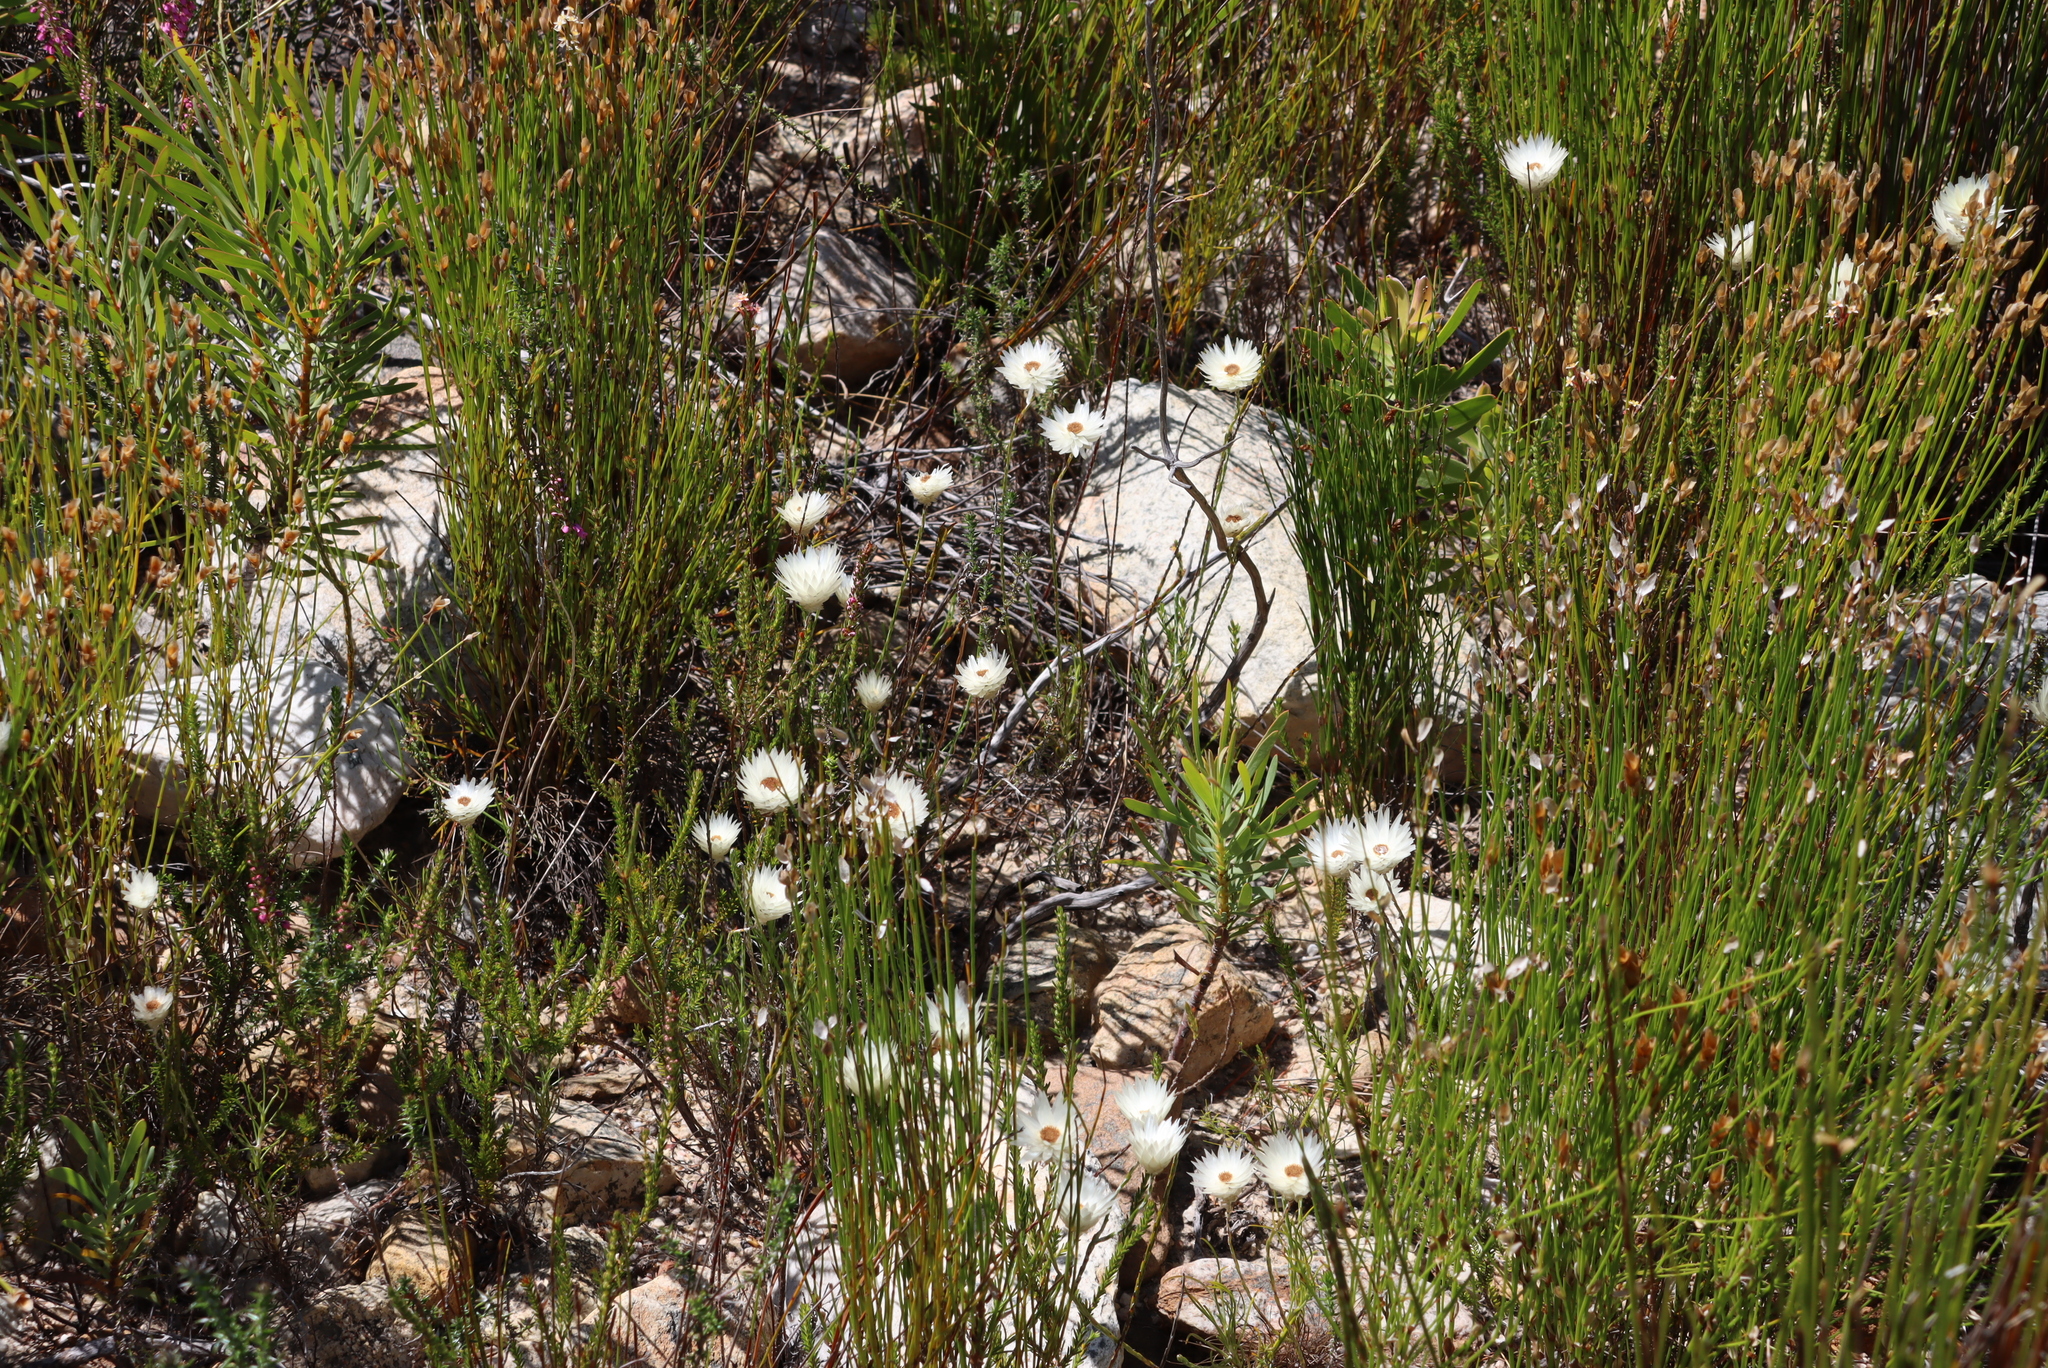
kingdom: Plantae
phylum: Tracheophyta
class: Magnoliopsida
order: Asterales
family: Asteraceae
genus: Edmondia
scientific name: Edmondia sesamoides
